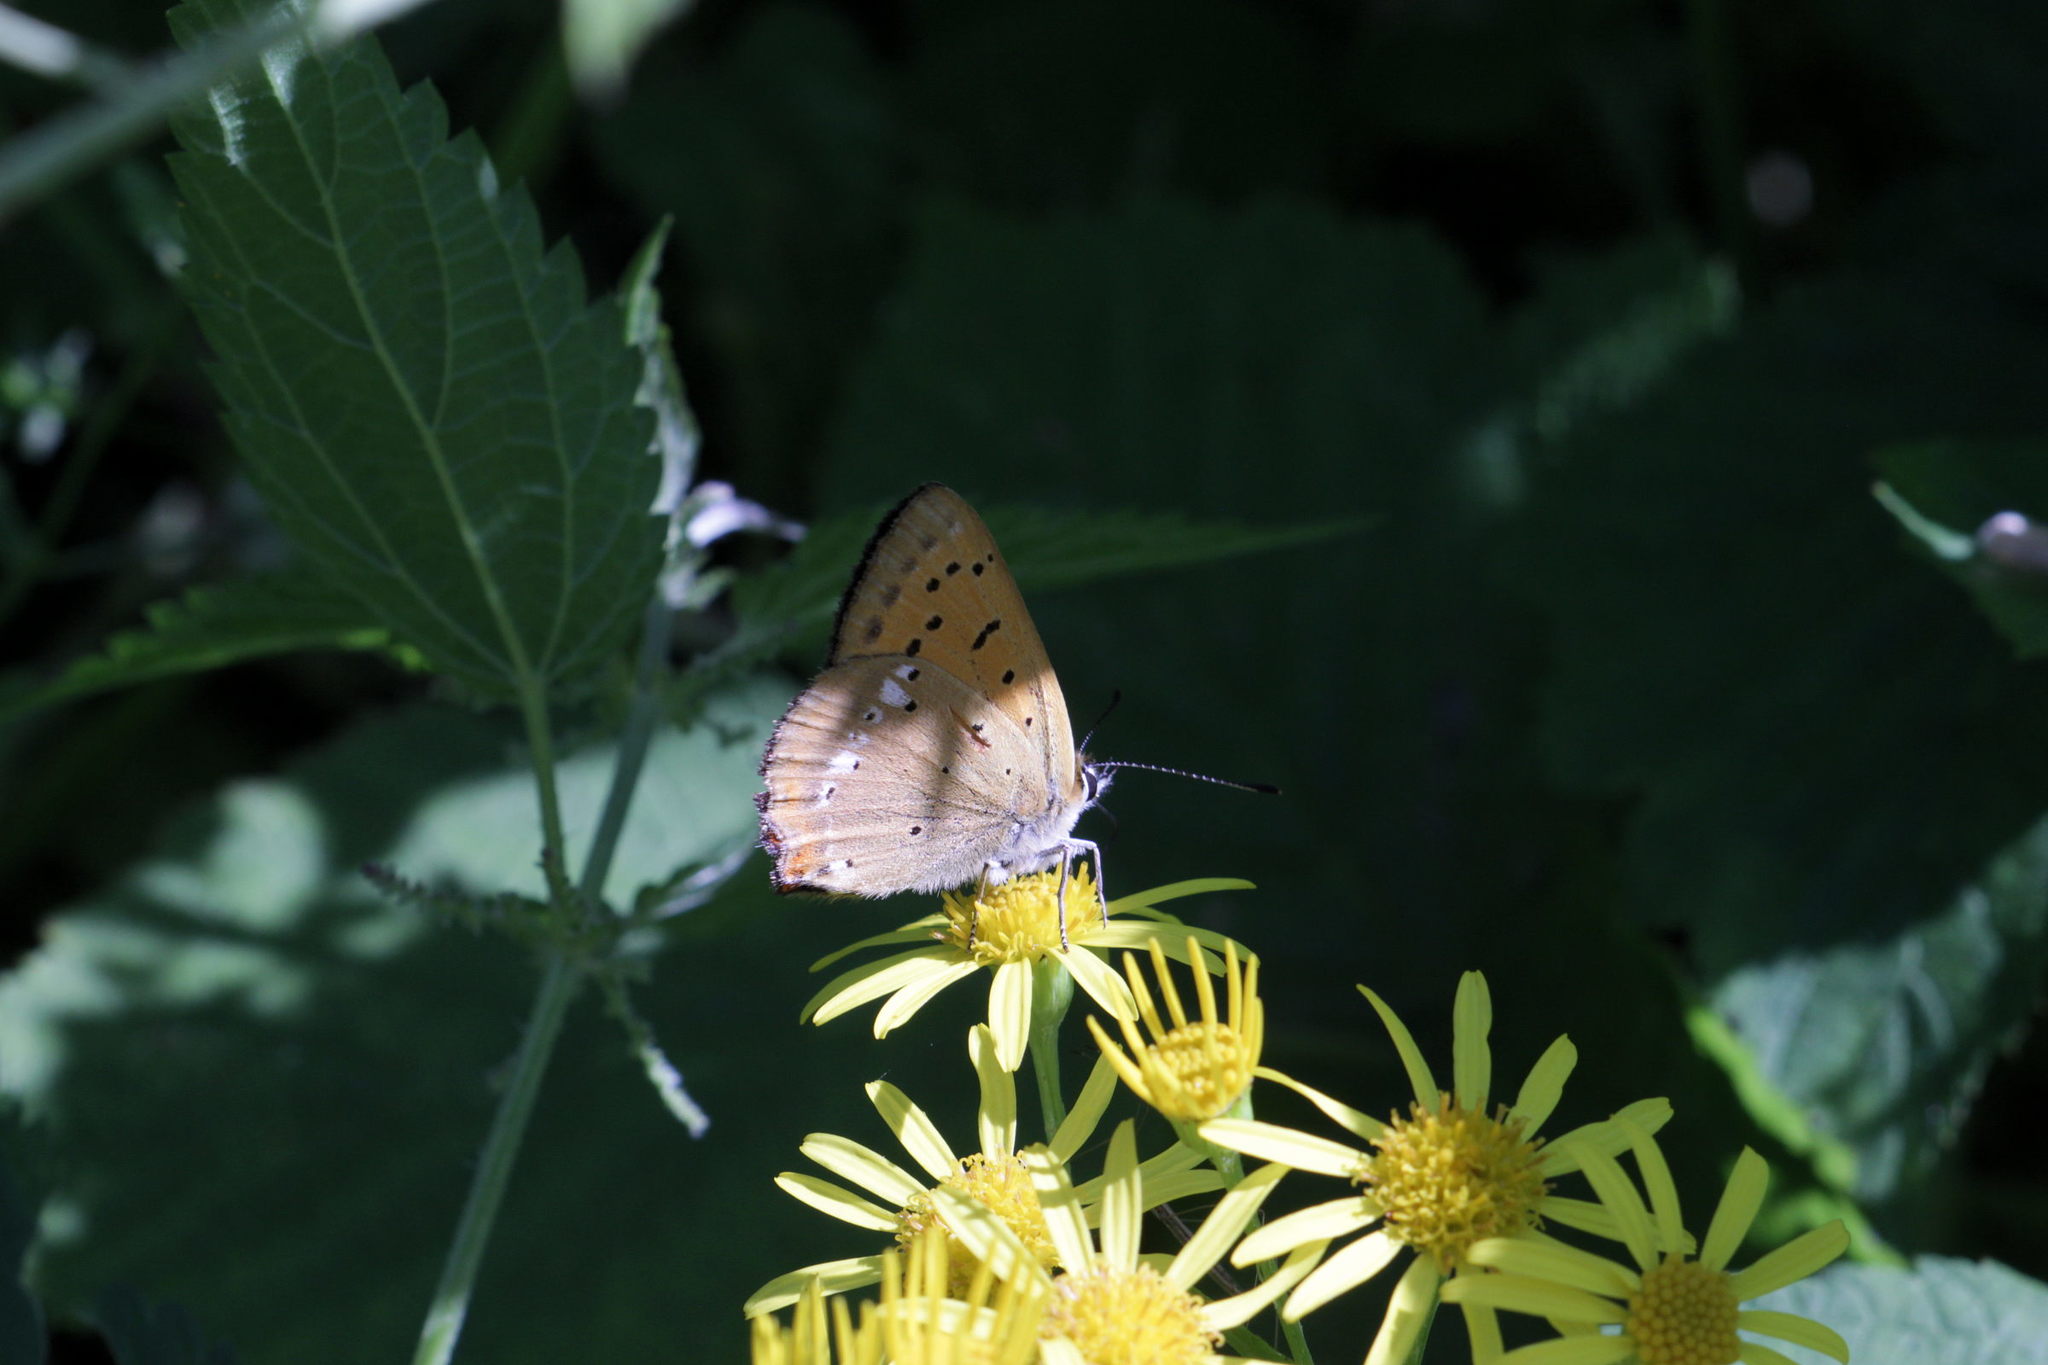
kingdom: Animalia
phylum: Arthropoda
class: Insecta
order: Lepidoptera
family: Lycaenidae
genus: Lycaena
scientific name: Lycaena virgaureae
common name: Scarce copper
